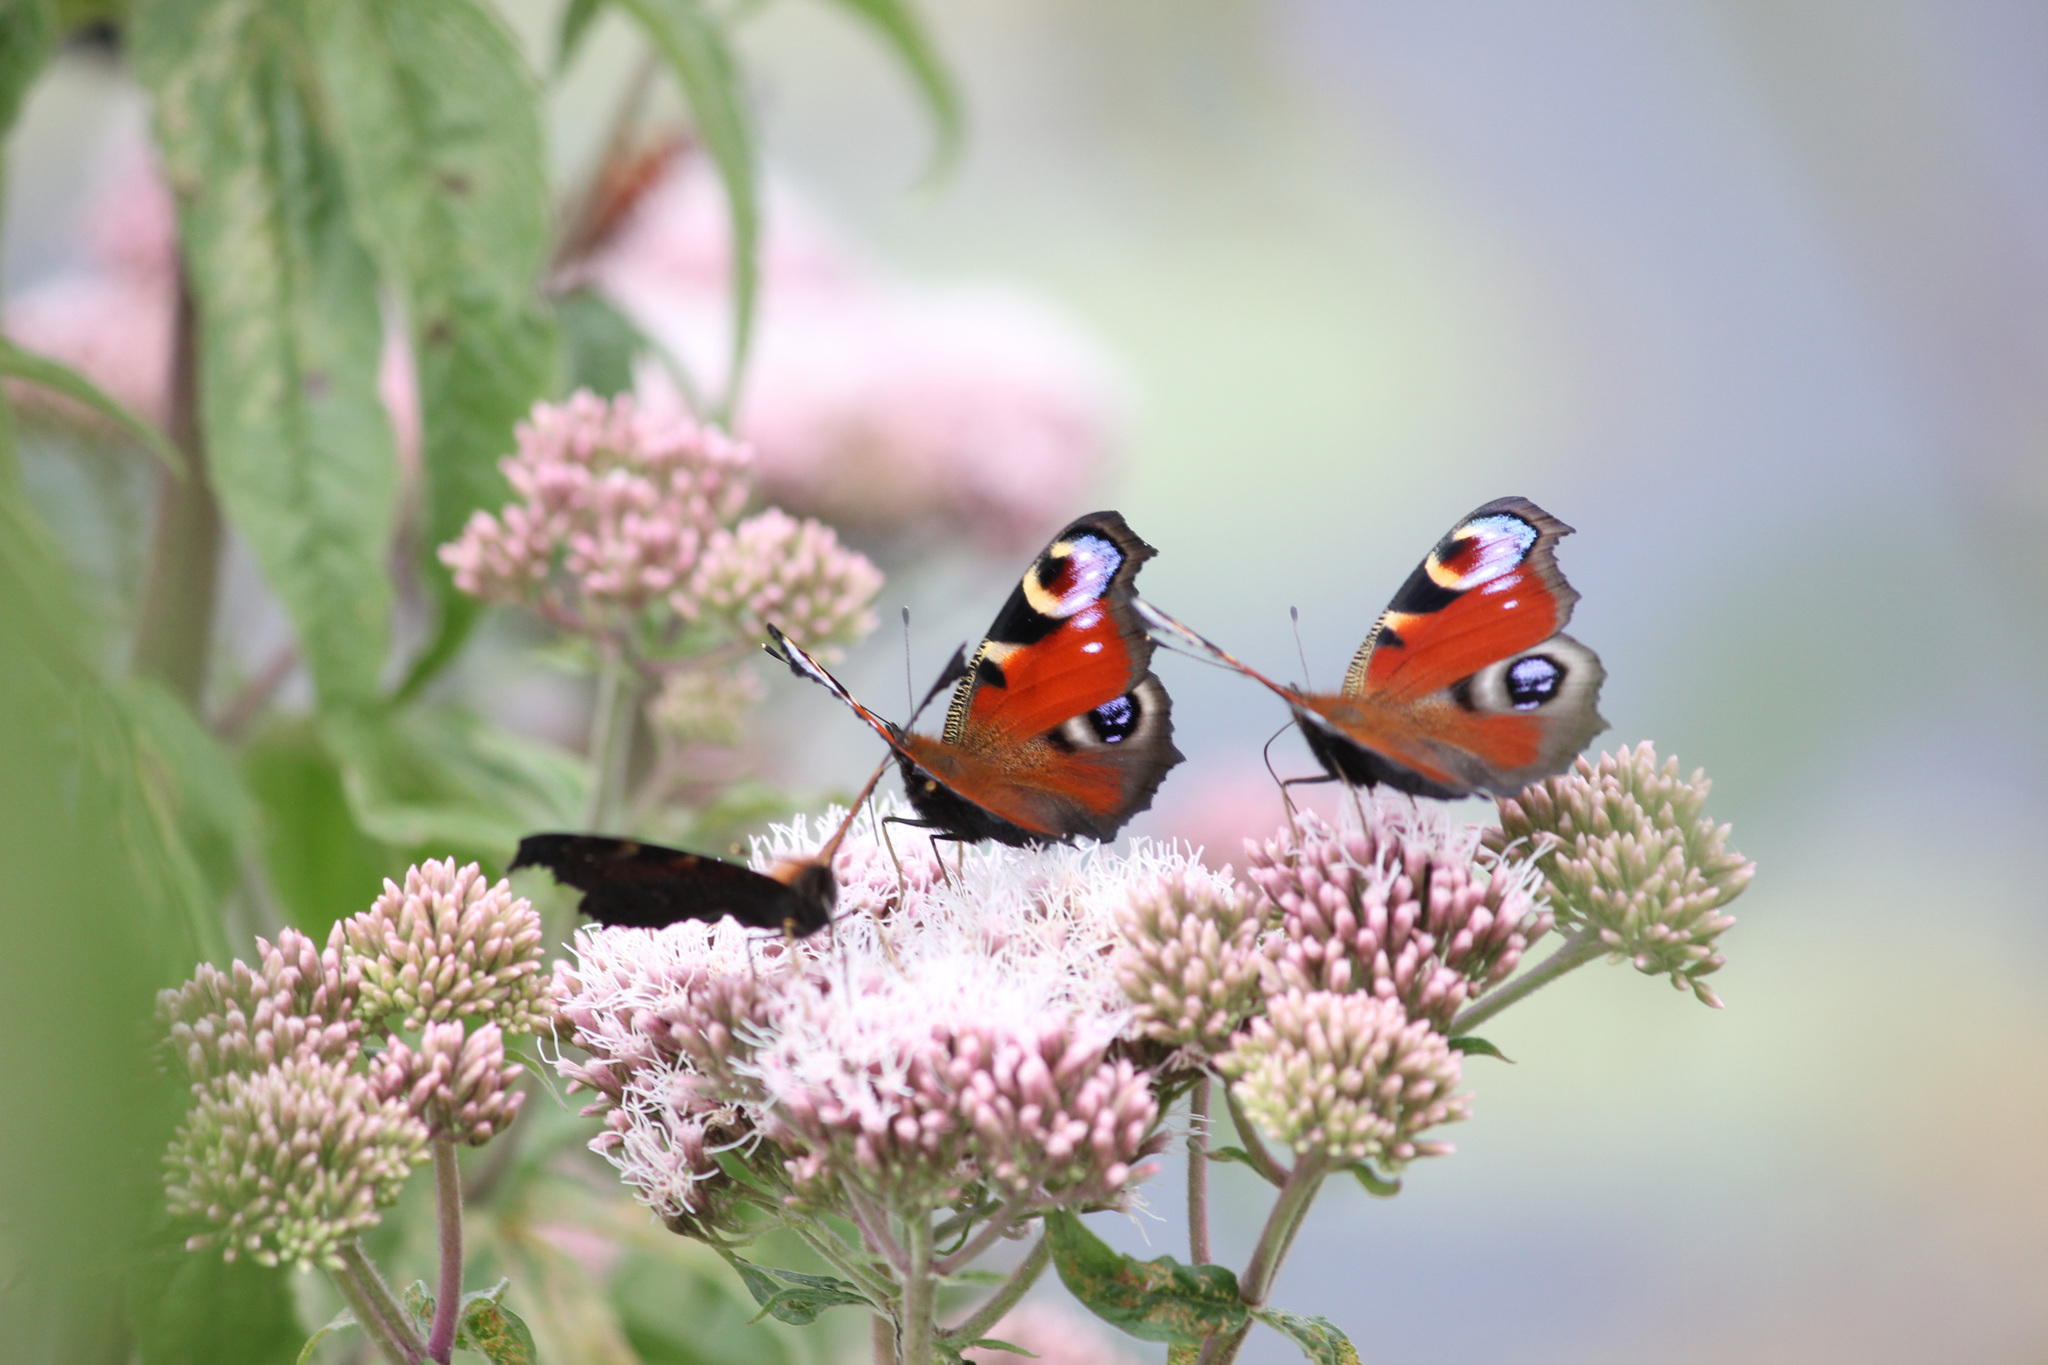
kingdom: Animalia
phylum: Arthropoda
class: Insecta
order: Lepidoptera
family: Nymphalidae
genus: Aglais
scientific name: Aglais io
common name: Peacock
